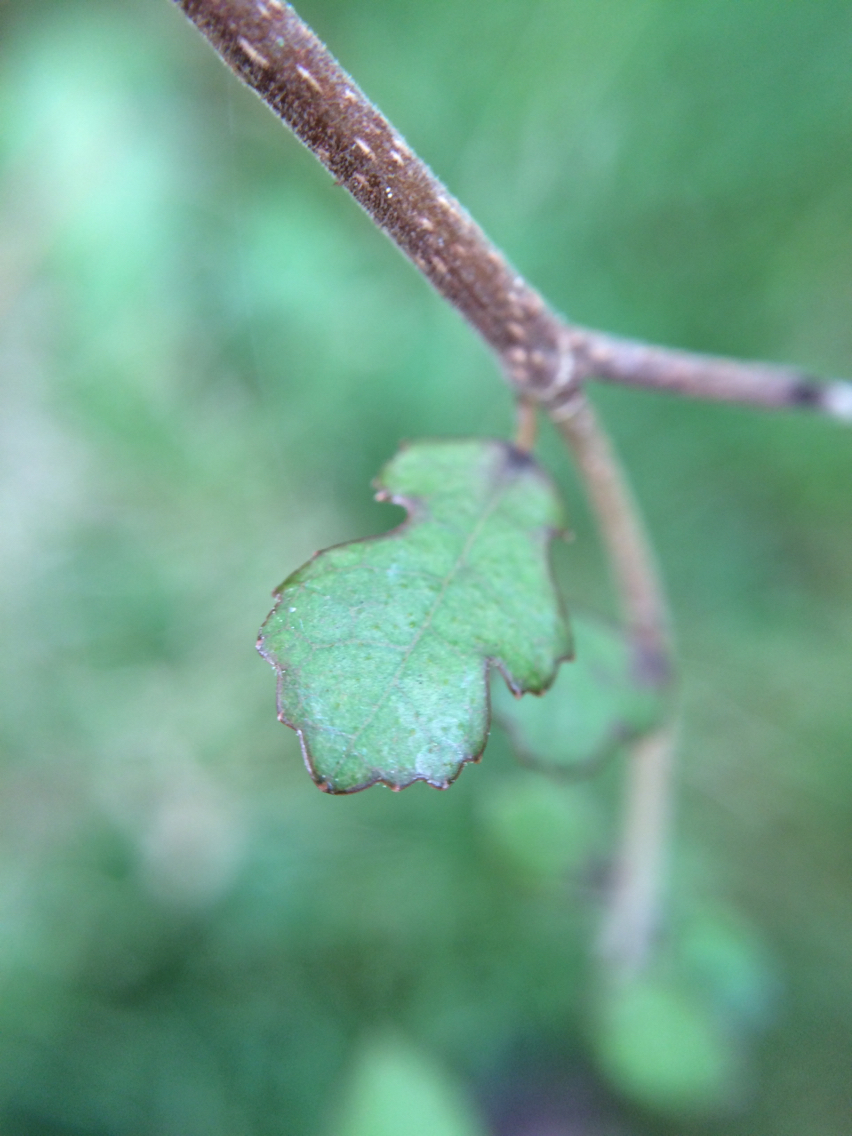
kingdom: Plantae
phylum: Tracheophyta
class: Magnoliopsida
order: Rosales
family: Moraceae
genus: Paratrophis
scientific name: Paratrophis microphylla
